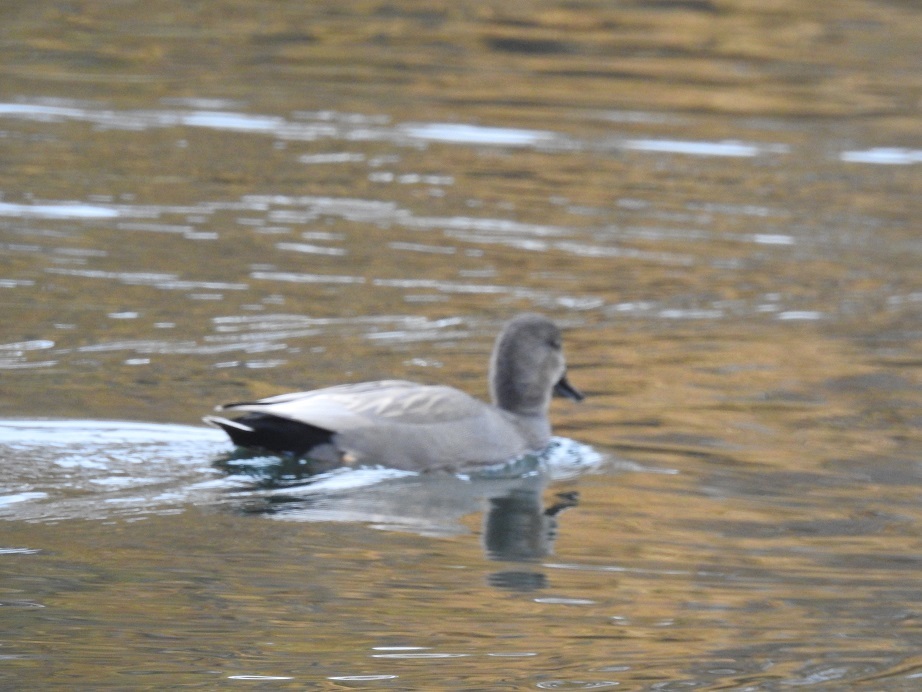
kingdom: Animalia
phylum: Chordata
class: Aves
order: Anseriformes
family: Anatidae
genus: Mareca
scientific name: Mareca strepera
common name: Gadwall
